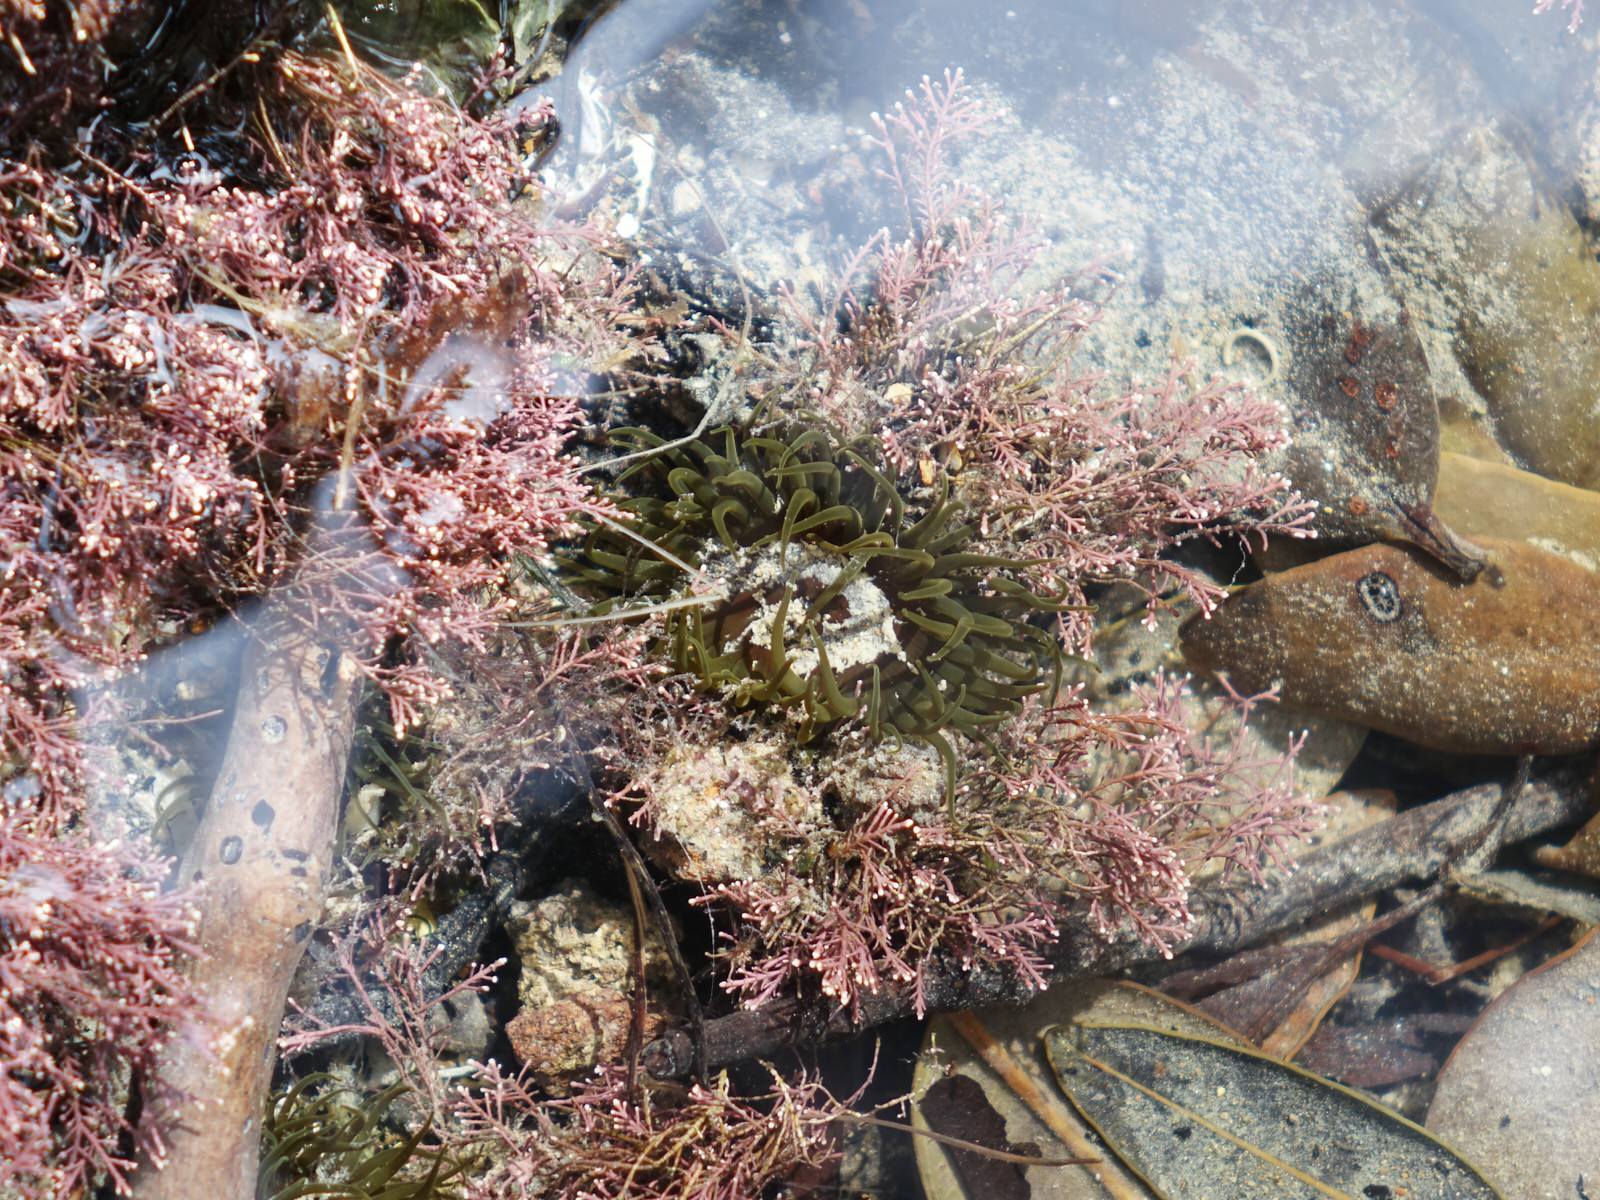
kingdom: Animalia
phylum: Cnidaria
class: Anthozoa
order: Actiniaria
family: Actiniidae
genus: Isactinia
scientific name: Isactinia olivacea
